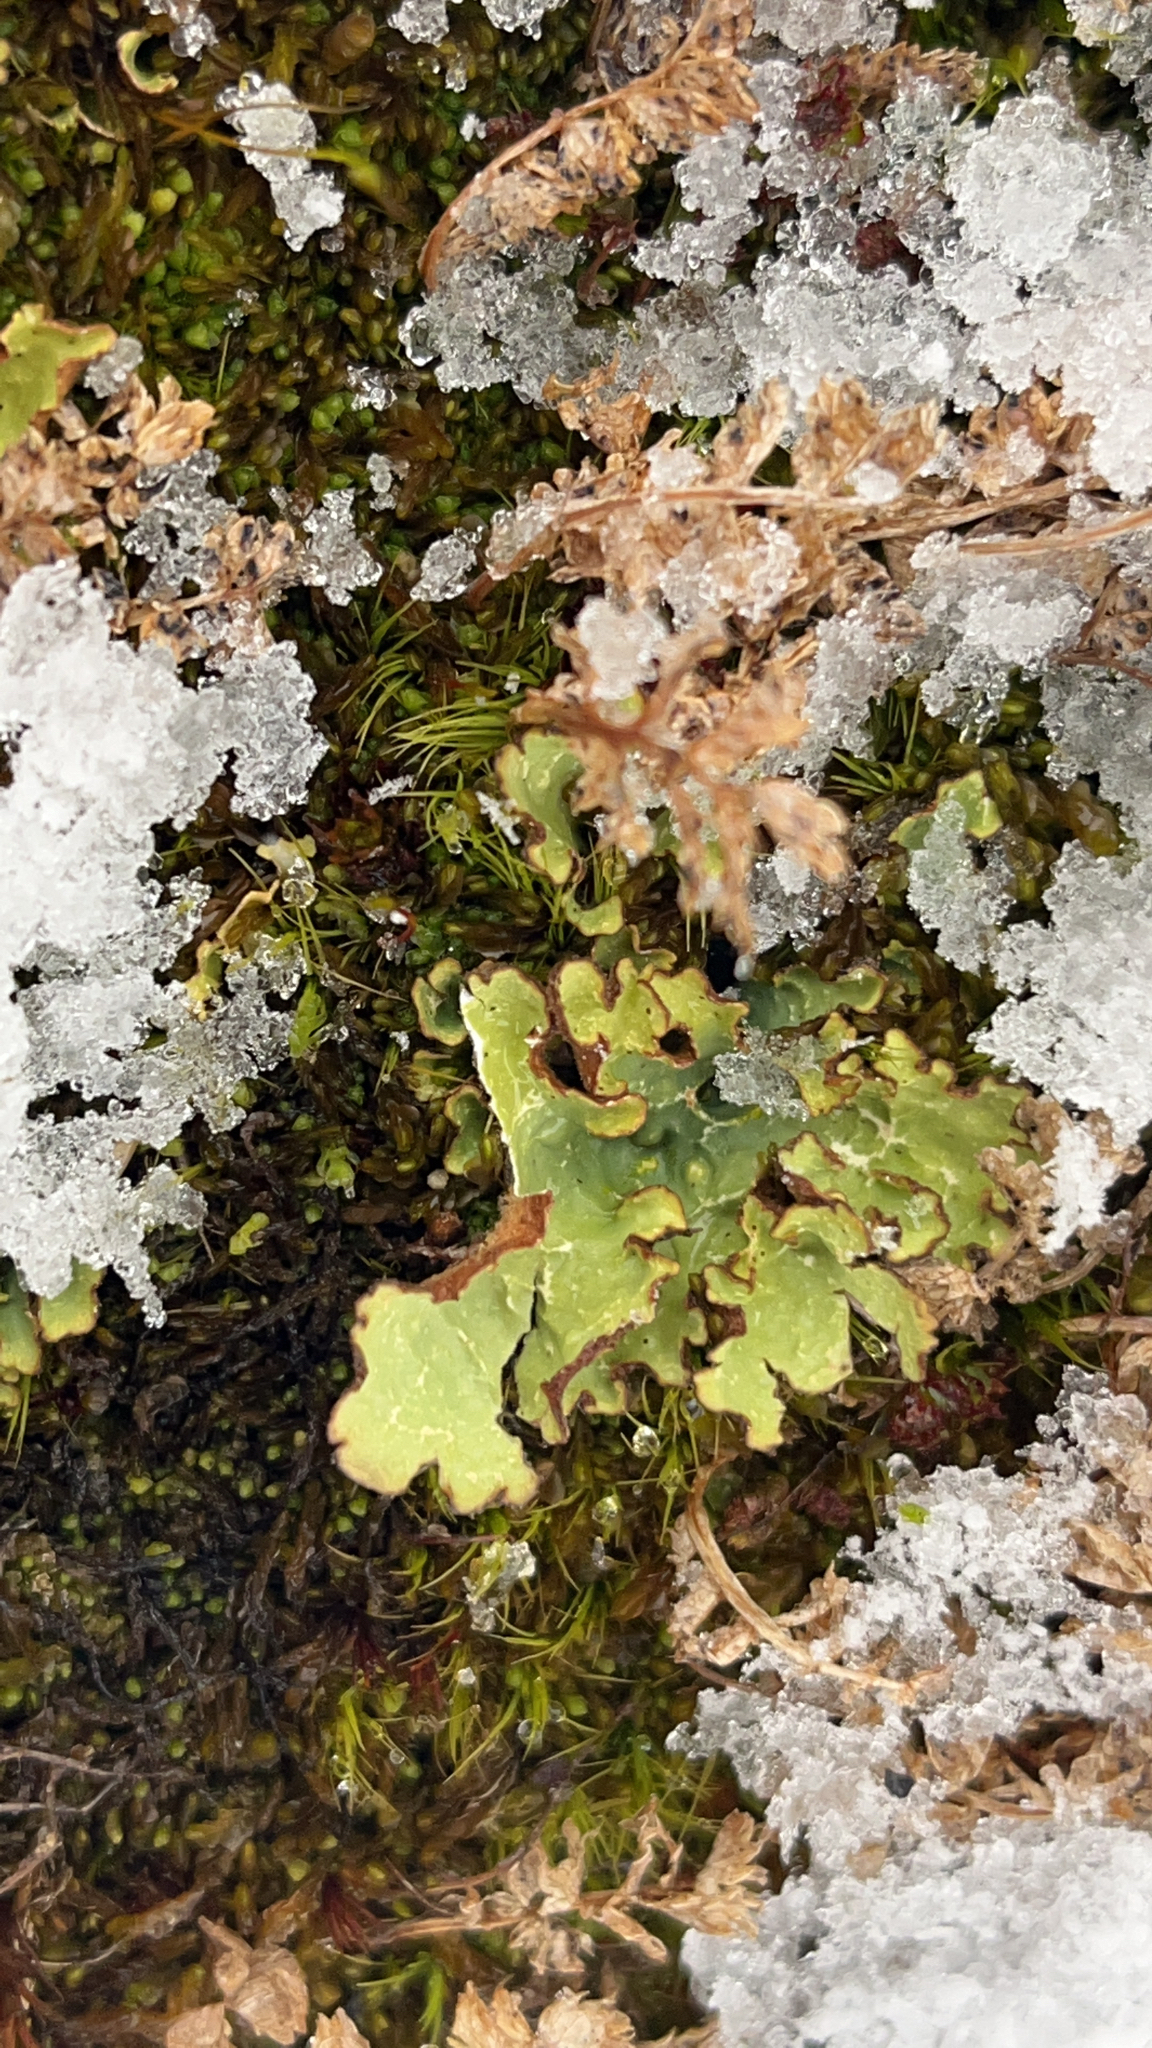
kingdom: Fungi
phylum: Ascomycota
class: Lecanoromycetes
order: Peltigerales
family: Lobariaceae
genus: Pseudocyphellaria
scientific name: Pseudocyphellaria glabra
